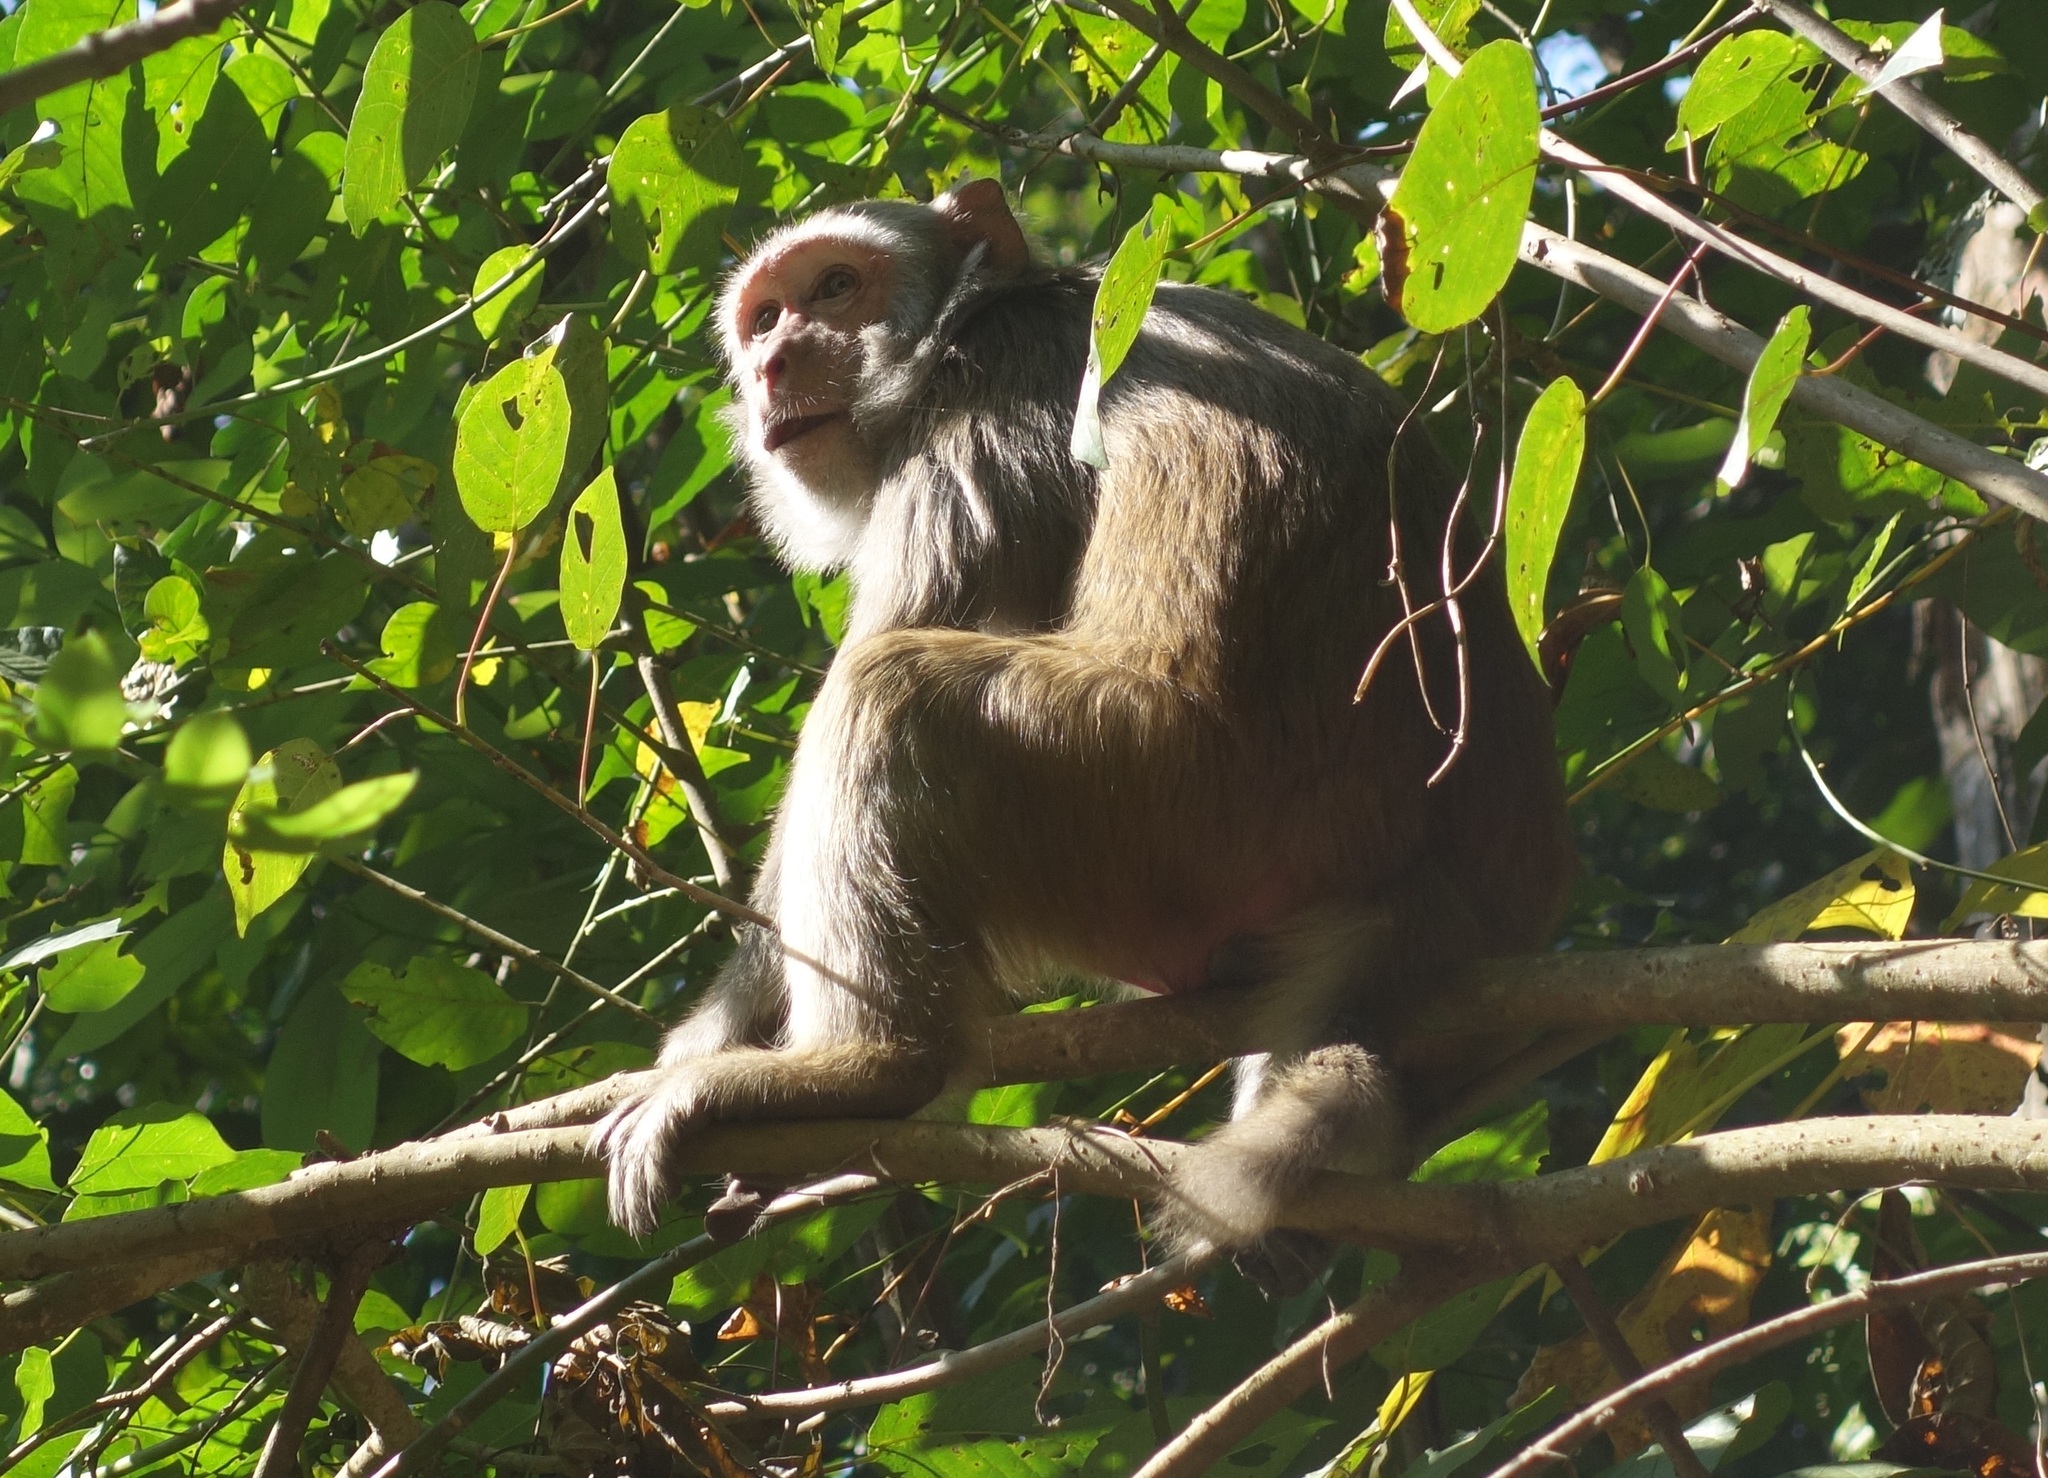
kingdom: Animalia
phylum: Chordata
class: Mammalia
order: Primates
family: Cercopithecidae
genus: Macaca
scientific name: Macaca mulatta
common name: Rhesus monkey
